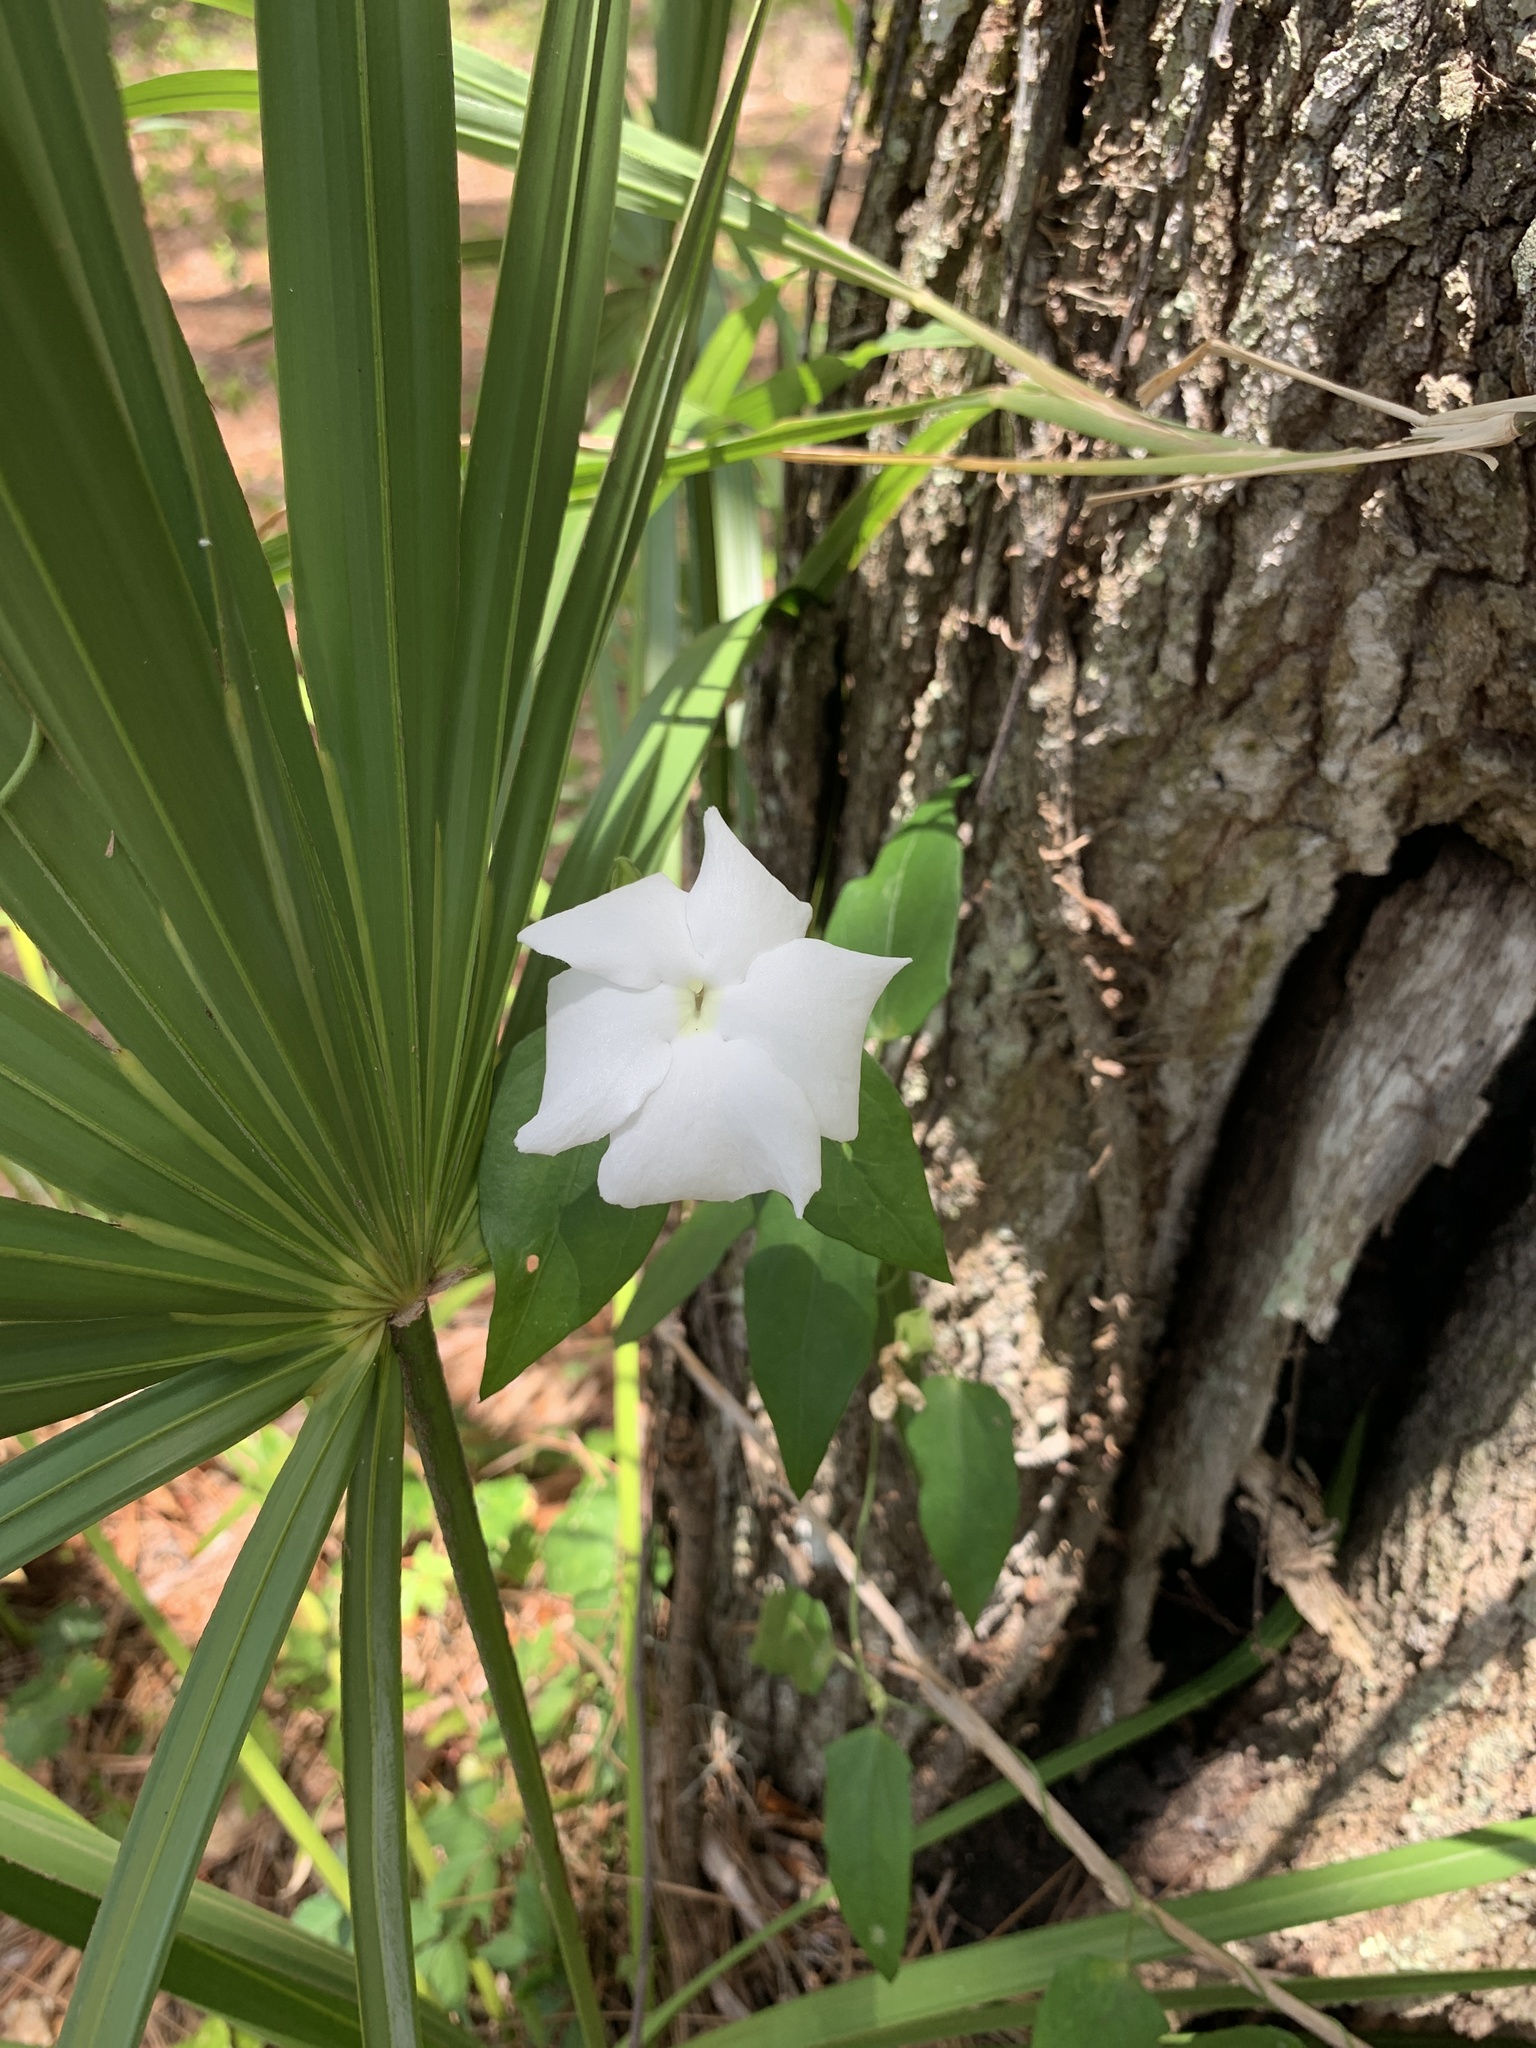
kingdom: Plantae
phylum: Tracheophyta
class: Magnoliopsida
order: Lamiales
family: Acanthaceae
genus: Thunbergia
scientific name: Thunbergia fragrans
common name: Whitelady
